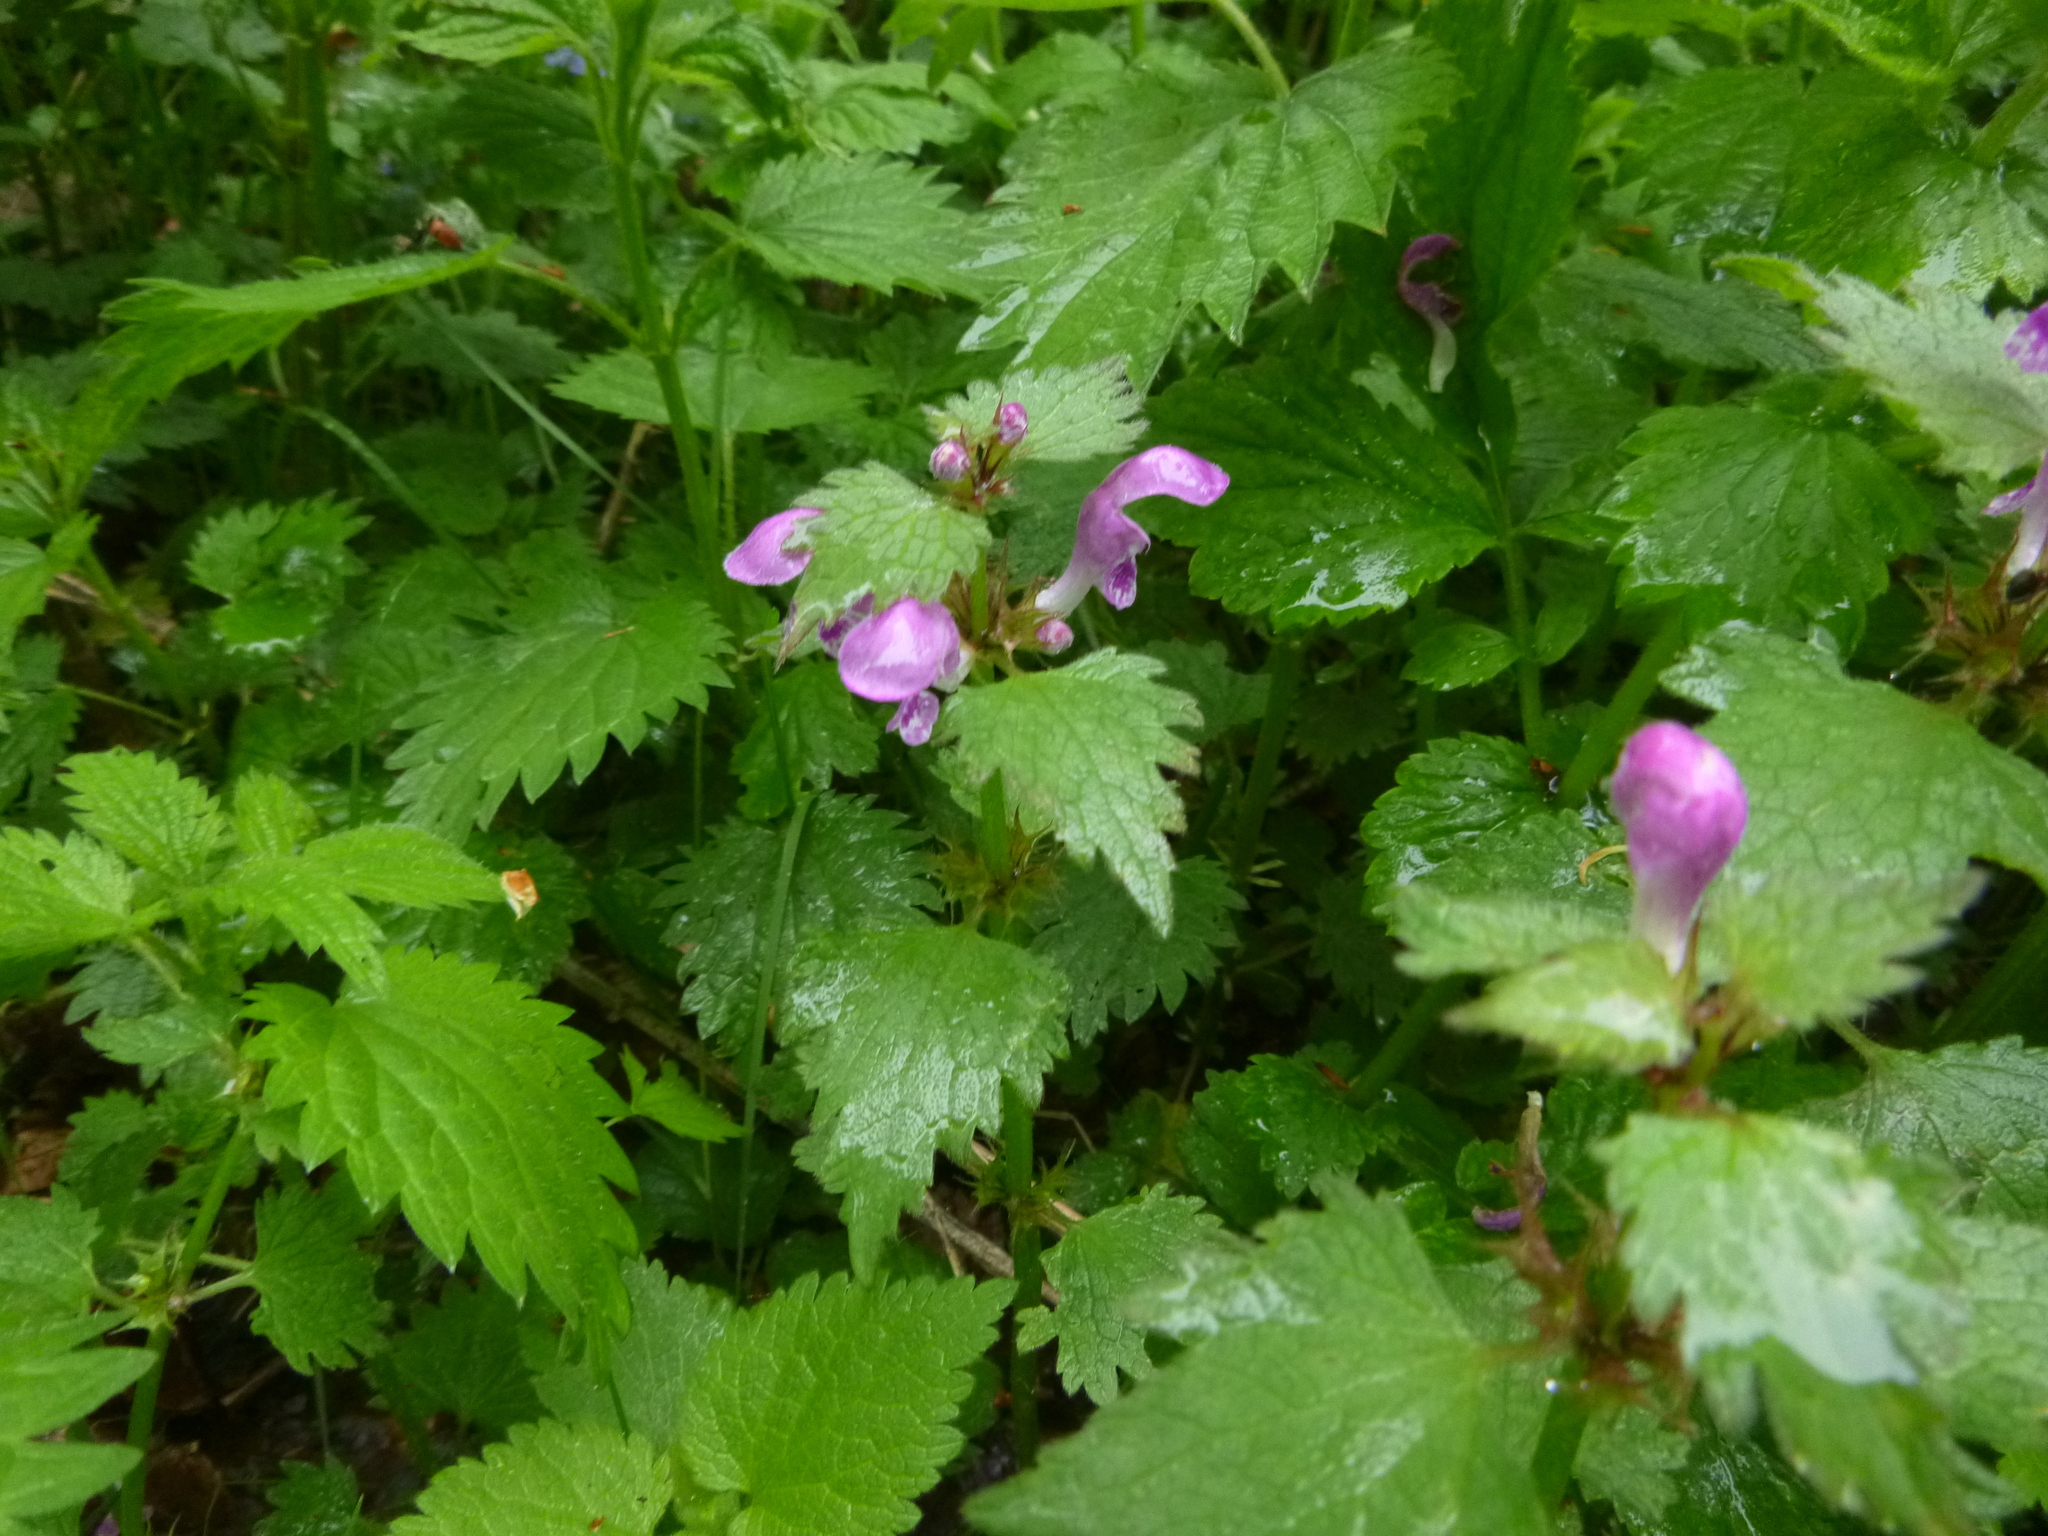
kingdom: Plantae
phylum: Tracheophyta
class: Magnoliopsida
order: Lamiales
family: Lamiaceae
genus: Lamium
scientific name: Lamium maculatum
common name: Spotted dead-nettle
